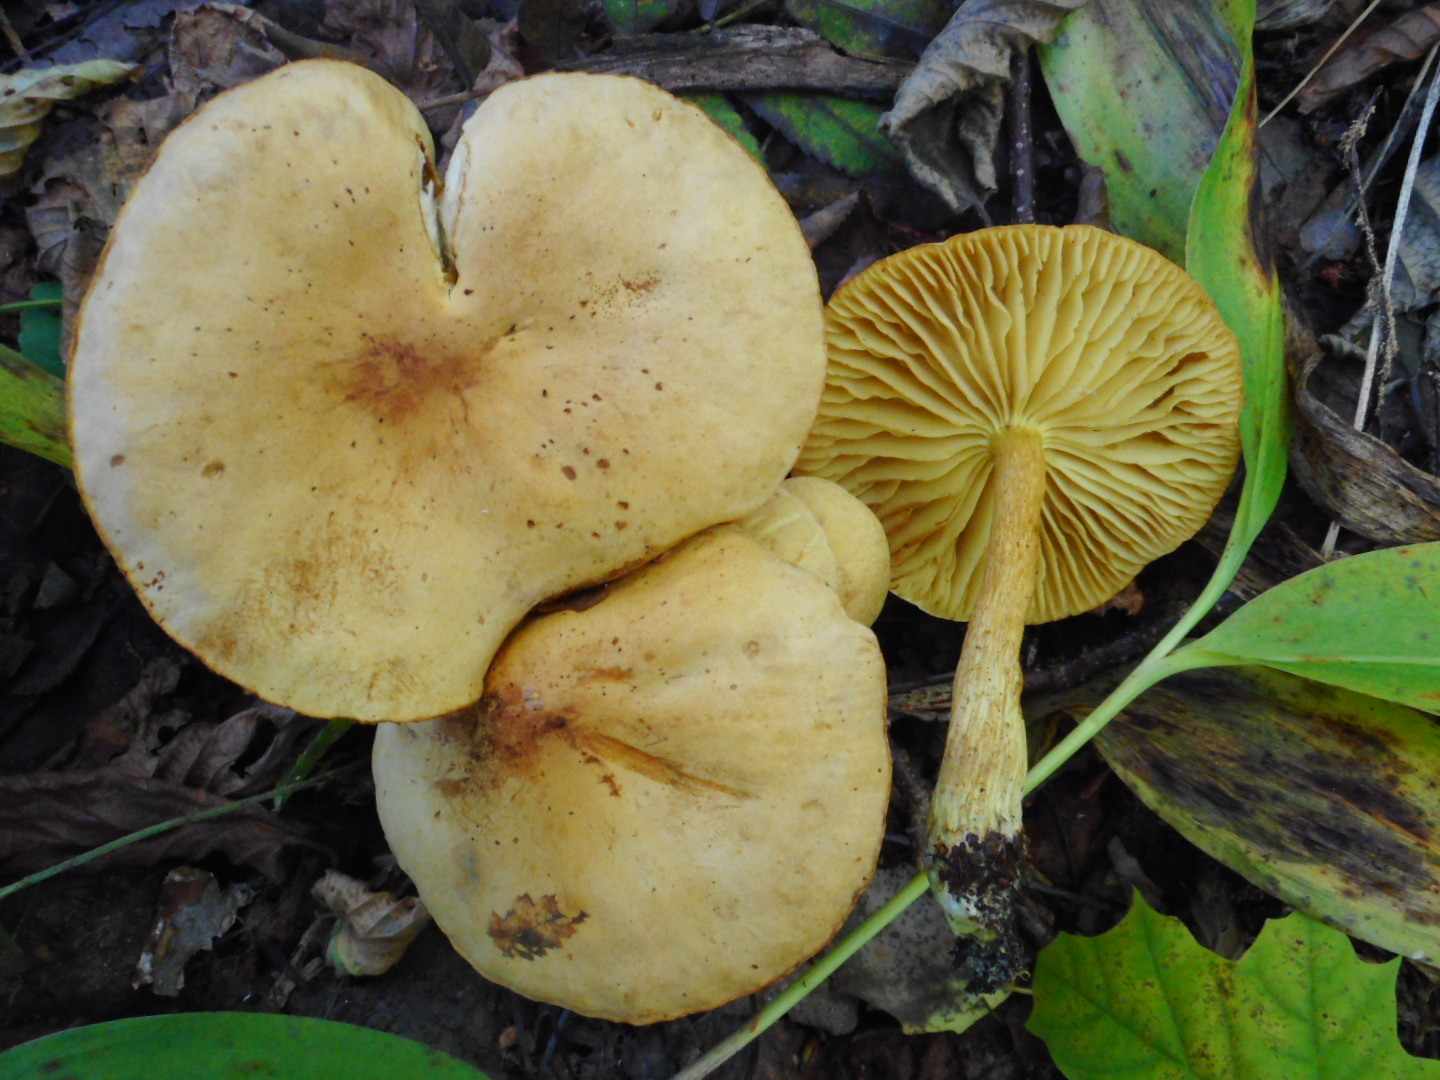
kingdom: Fungi
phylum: Basidiomycota
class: Agaricomycetes
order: Agaricales
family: Tricholomataceae
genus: Tricholoma
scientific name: Tricholoma sulphureum
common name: Stinky knight
